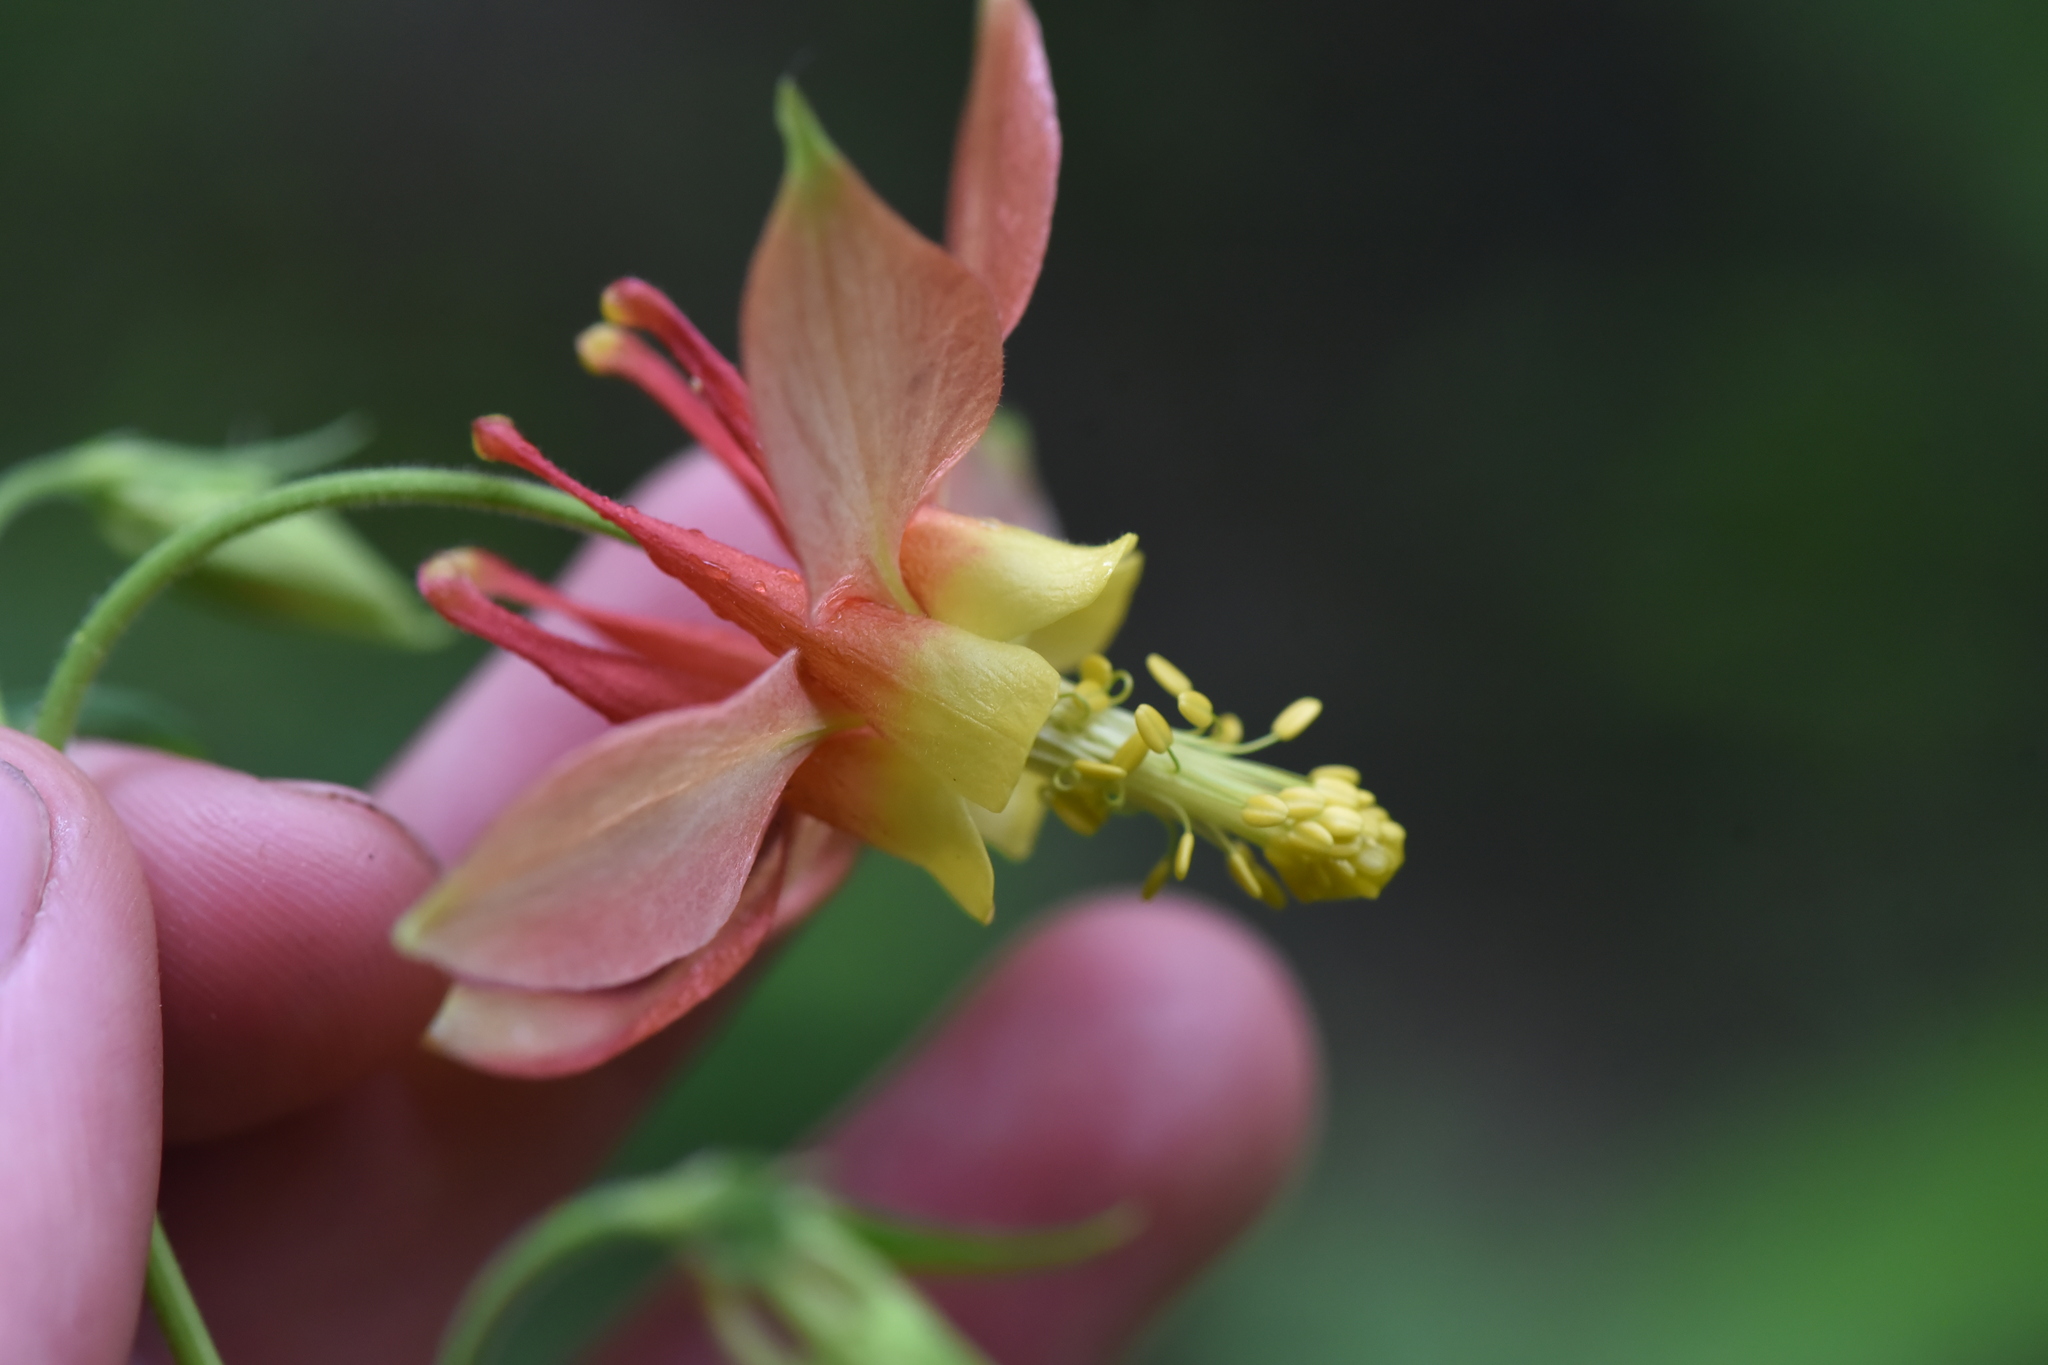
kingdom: Plantae
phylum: Tracheophyta
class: Magnoliopsida
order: Ranunculales
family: Ranunculaceae
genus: Aquilegia
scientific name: Aquilegia formosa
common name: Sitka columbine
